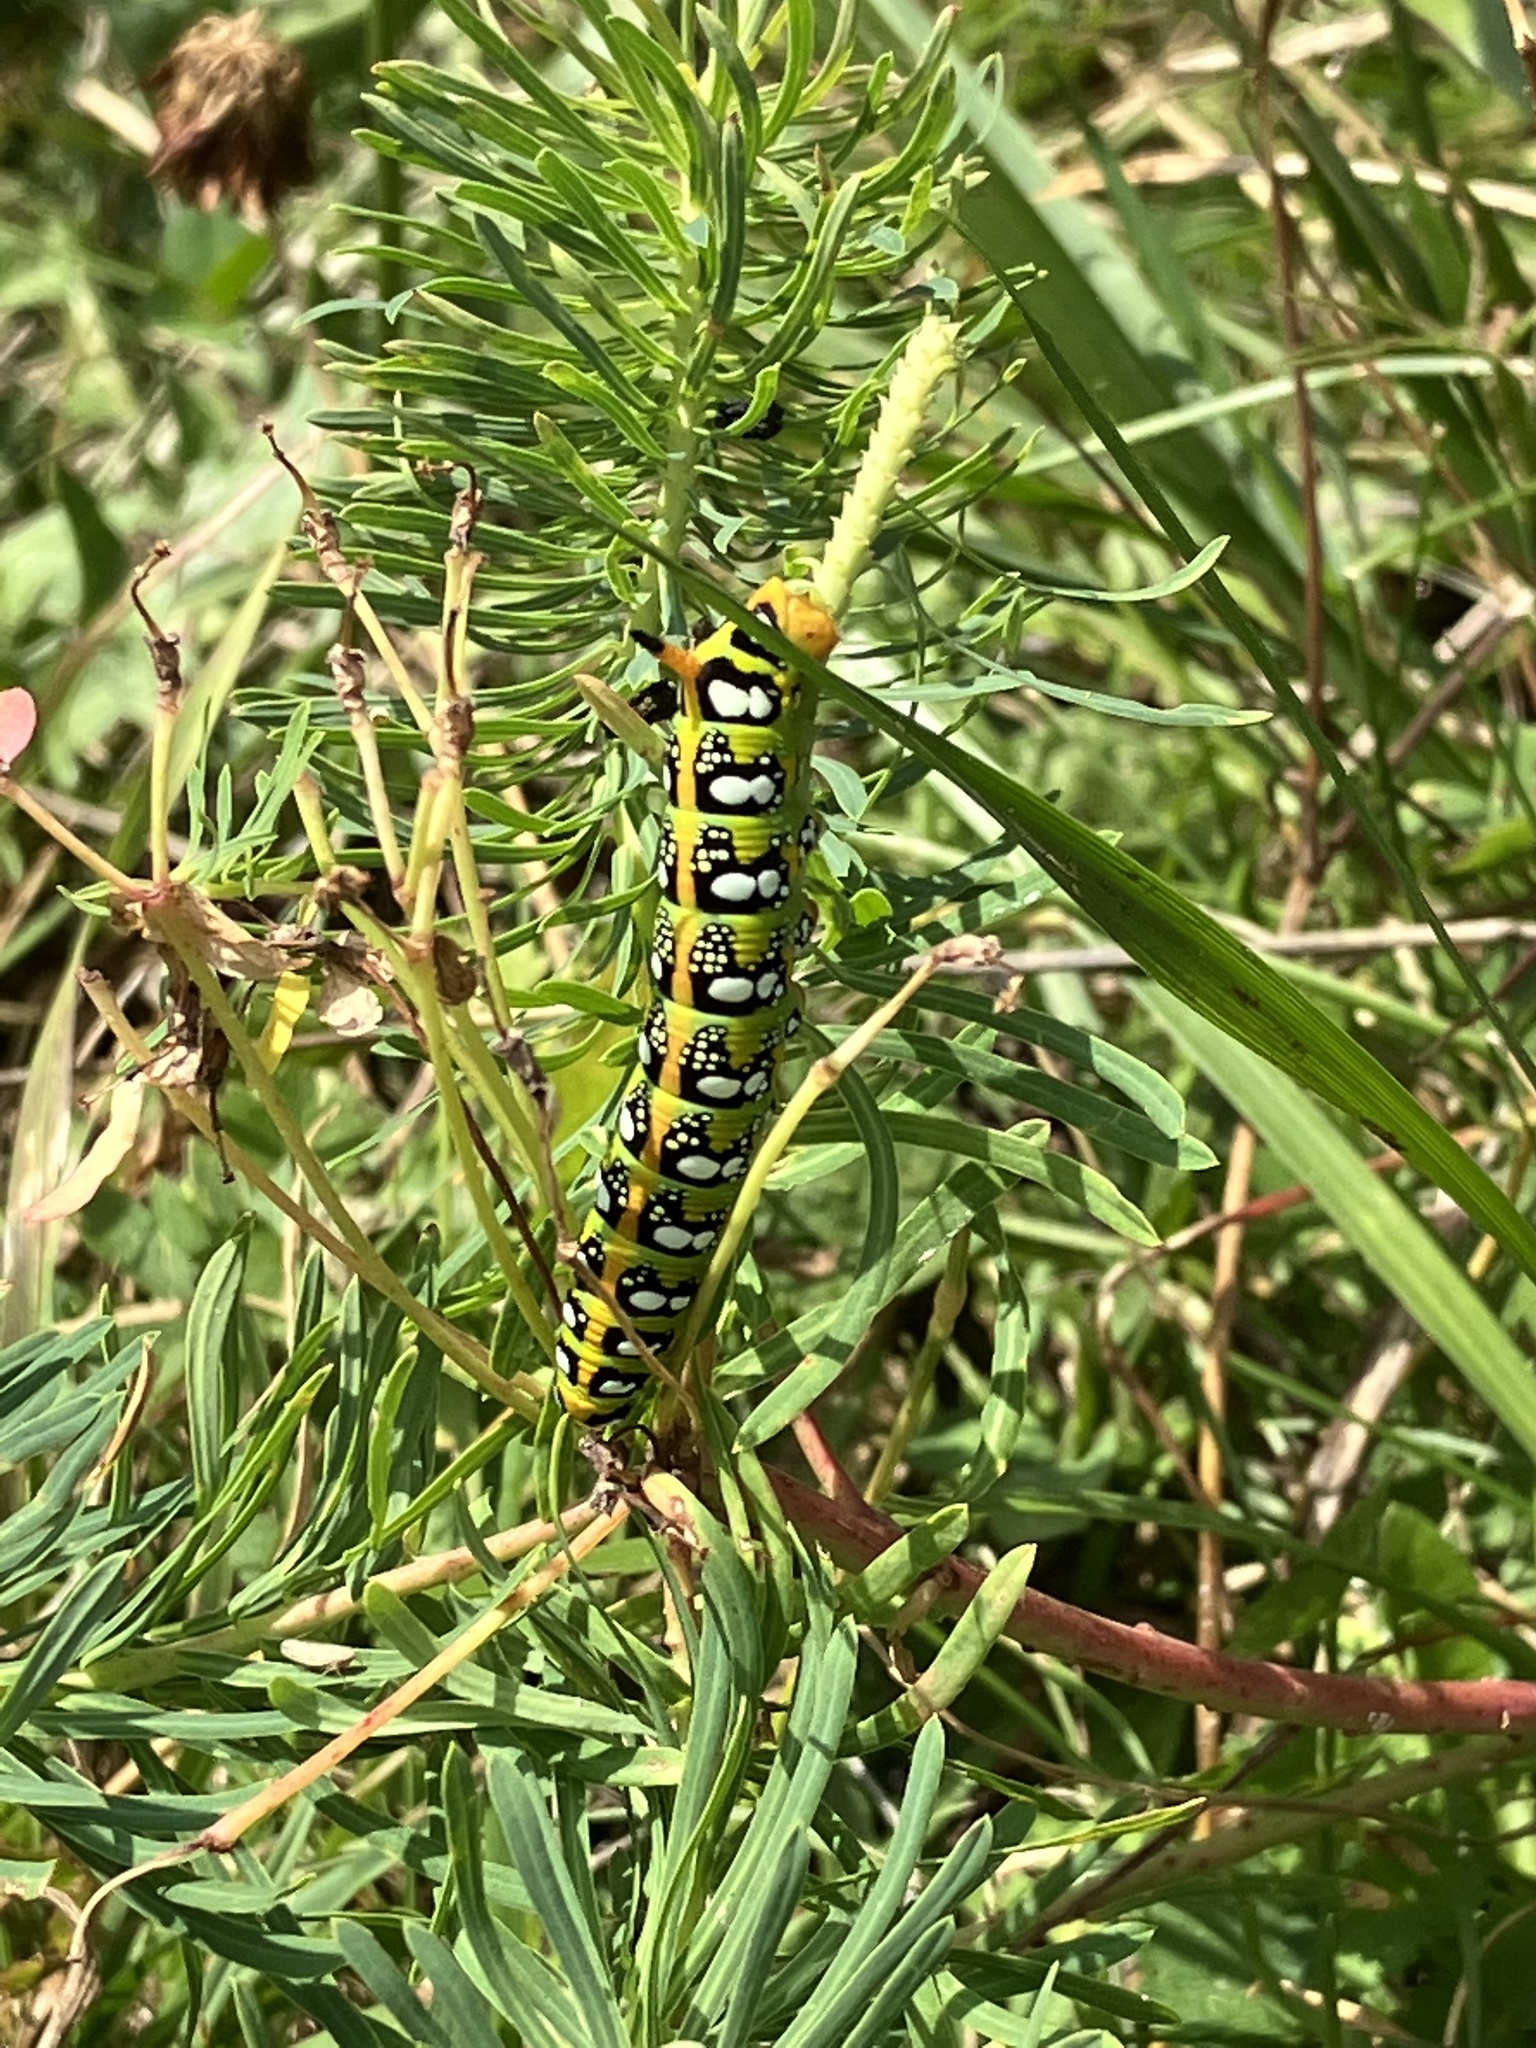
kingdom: Animalia
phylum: Arthropoda
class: Insecta
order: Lepidoptera
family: Sphingidae
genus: Hyles
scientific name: Hyles euphorbiae
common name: Spurge hawk-moth
